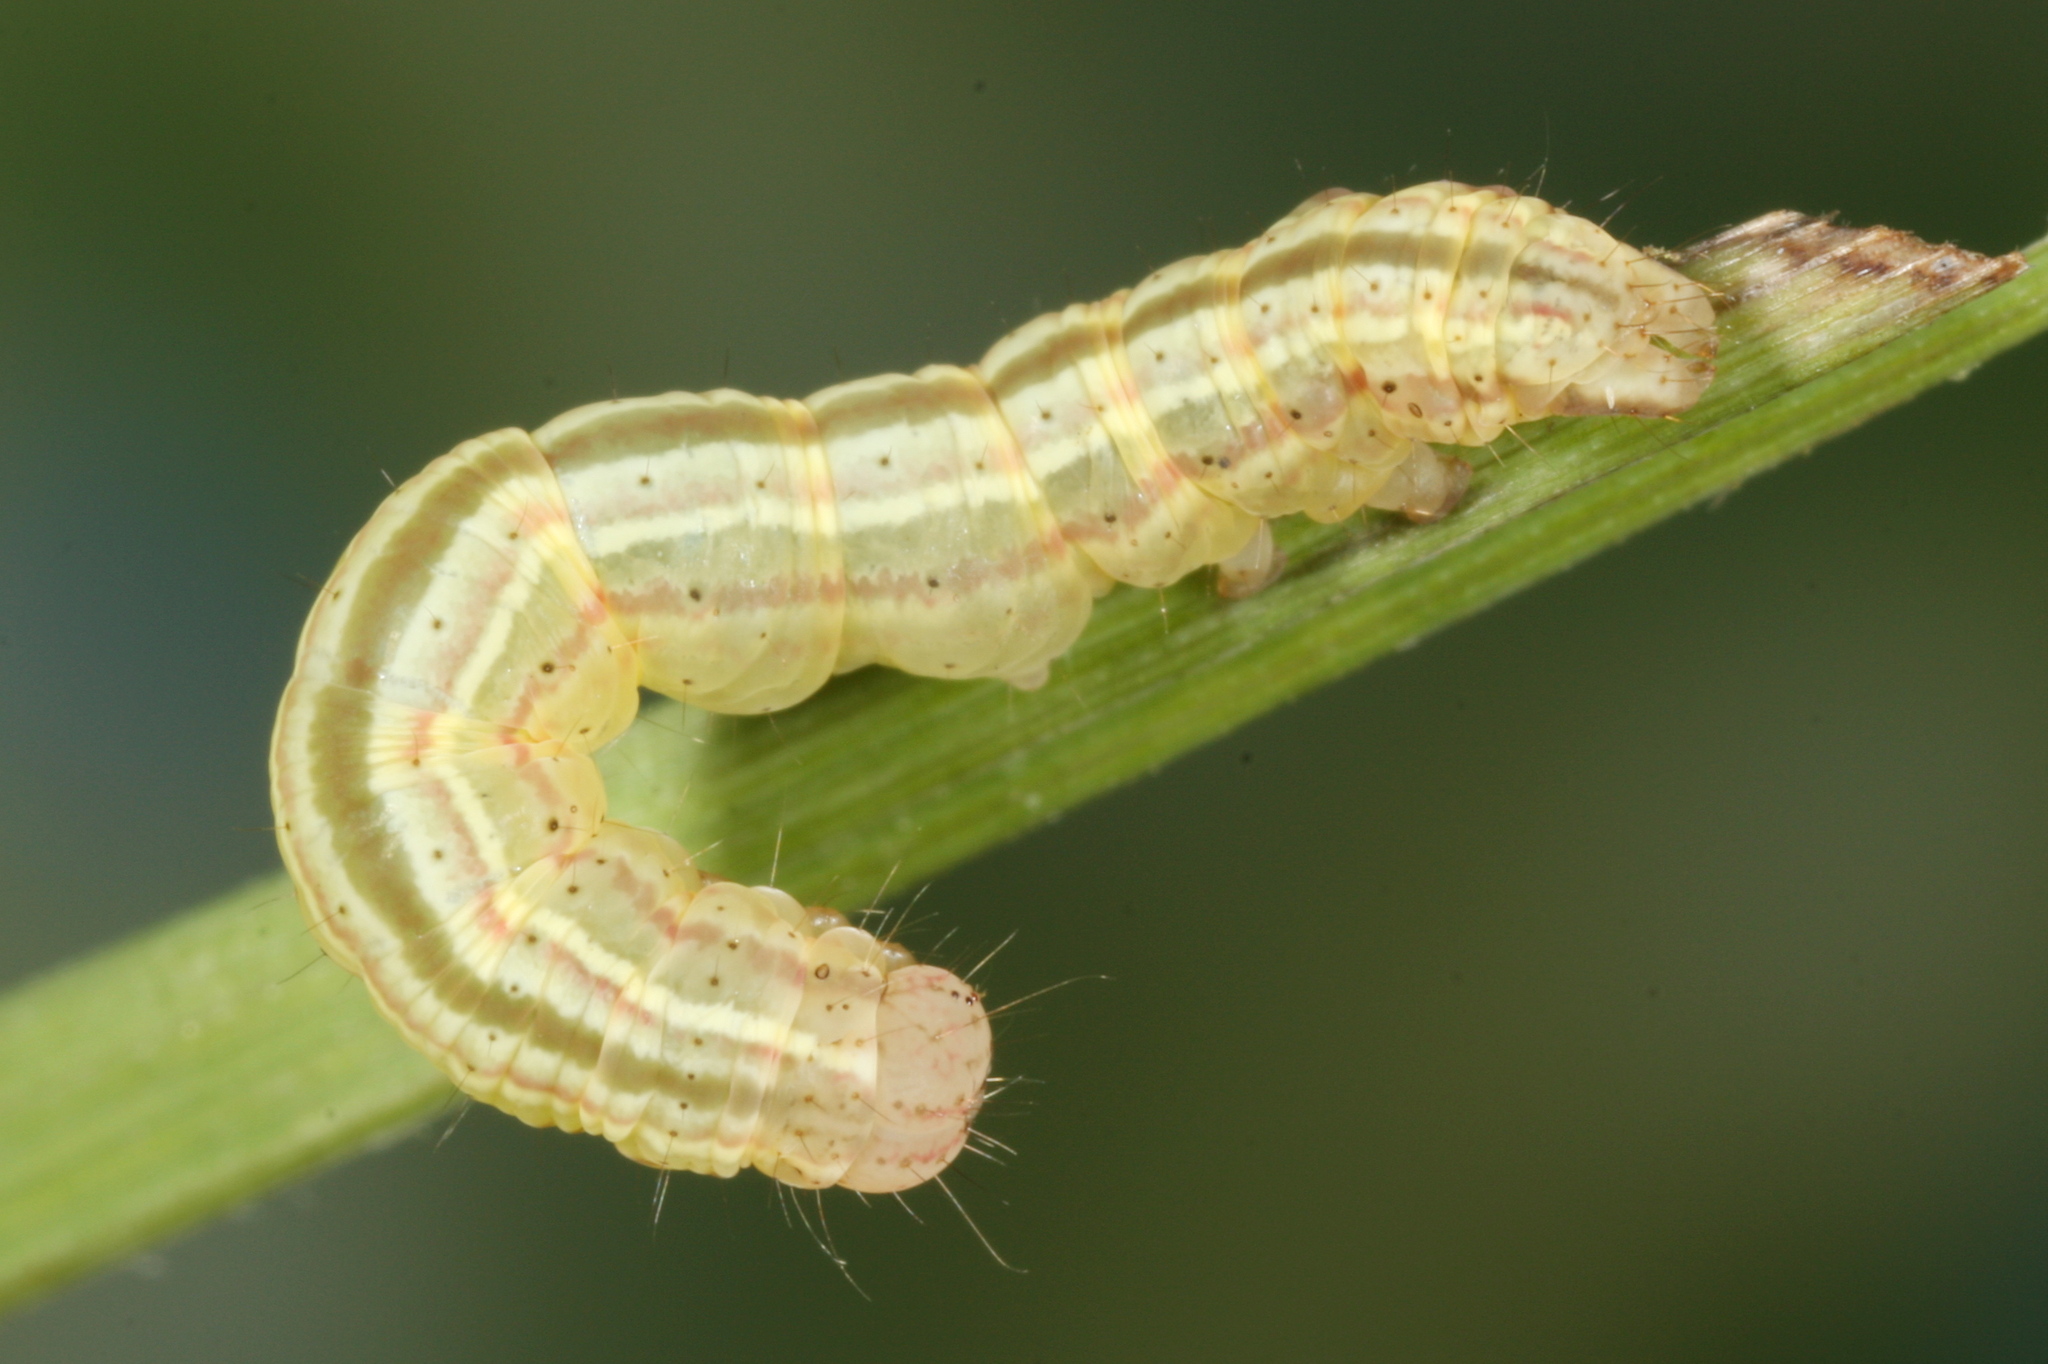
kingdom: Animalia
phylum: Arthropoda
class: Insecta
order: Lepidoptera
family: Noctuidae
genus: Deltote
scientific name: Deltote pygarga
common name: Marbled white spot
